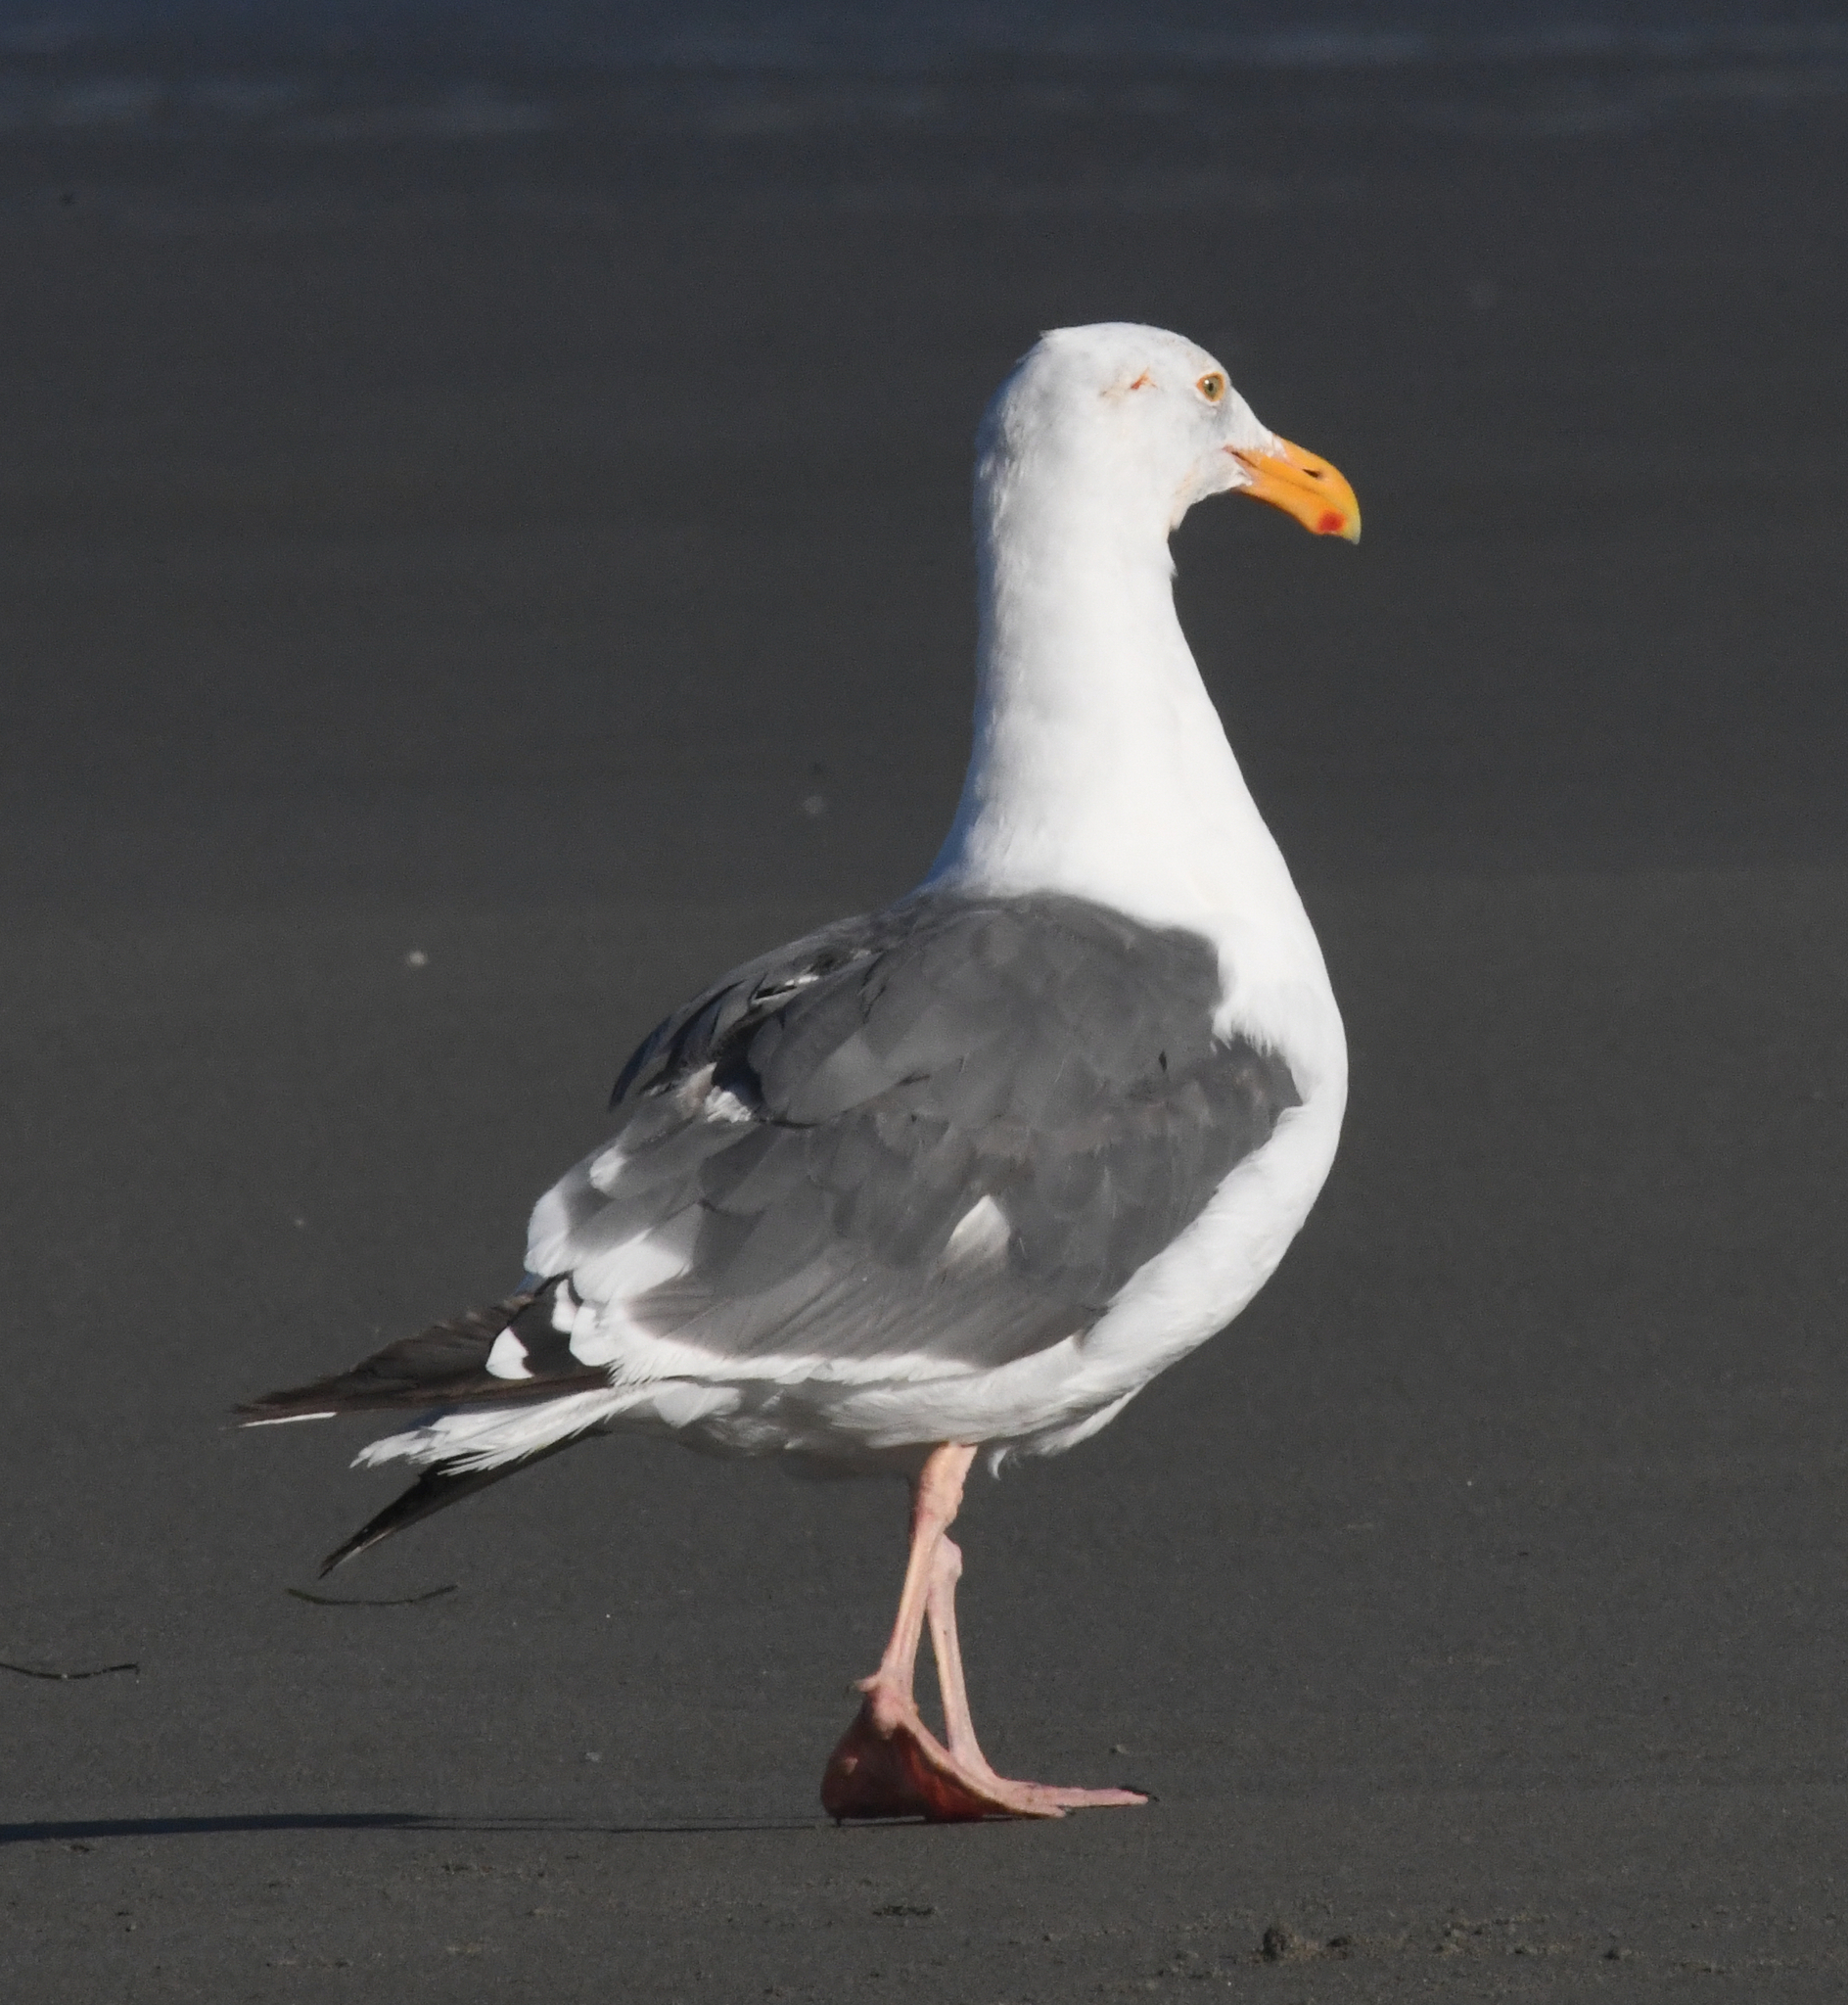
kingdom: Animalia
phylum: Chordata
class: Aves
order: Charadriiformes
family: Laridae
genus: Larus
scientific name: Larus occidentalis
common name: Western gull
